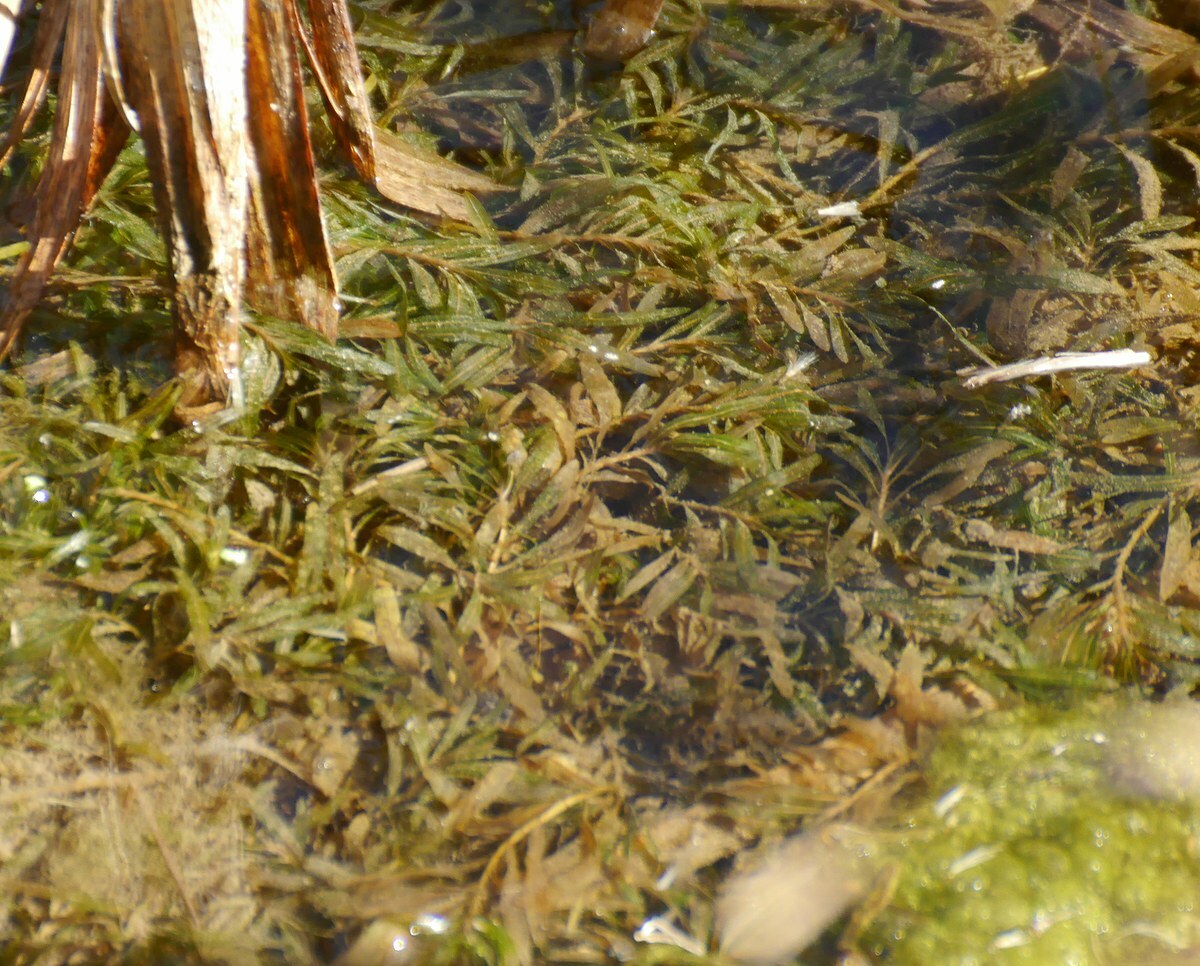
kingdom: Plantae
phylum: Tracheophyta
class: Liliopsida
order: Alismatales
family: Potamogetonaceae
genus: Potamogeton
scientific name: Potamogeton crispus
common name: Curled pondweed
